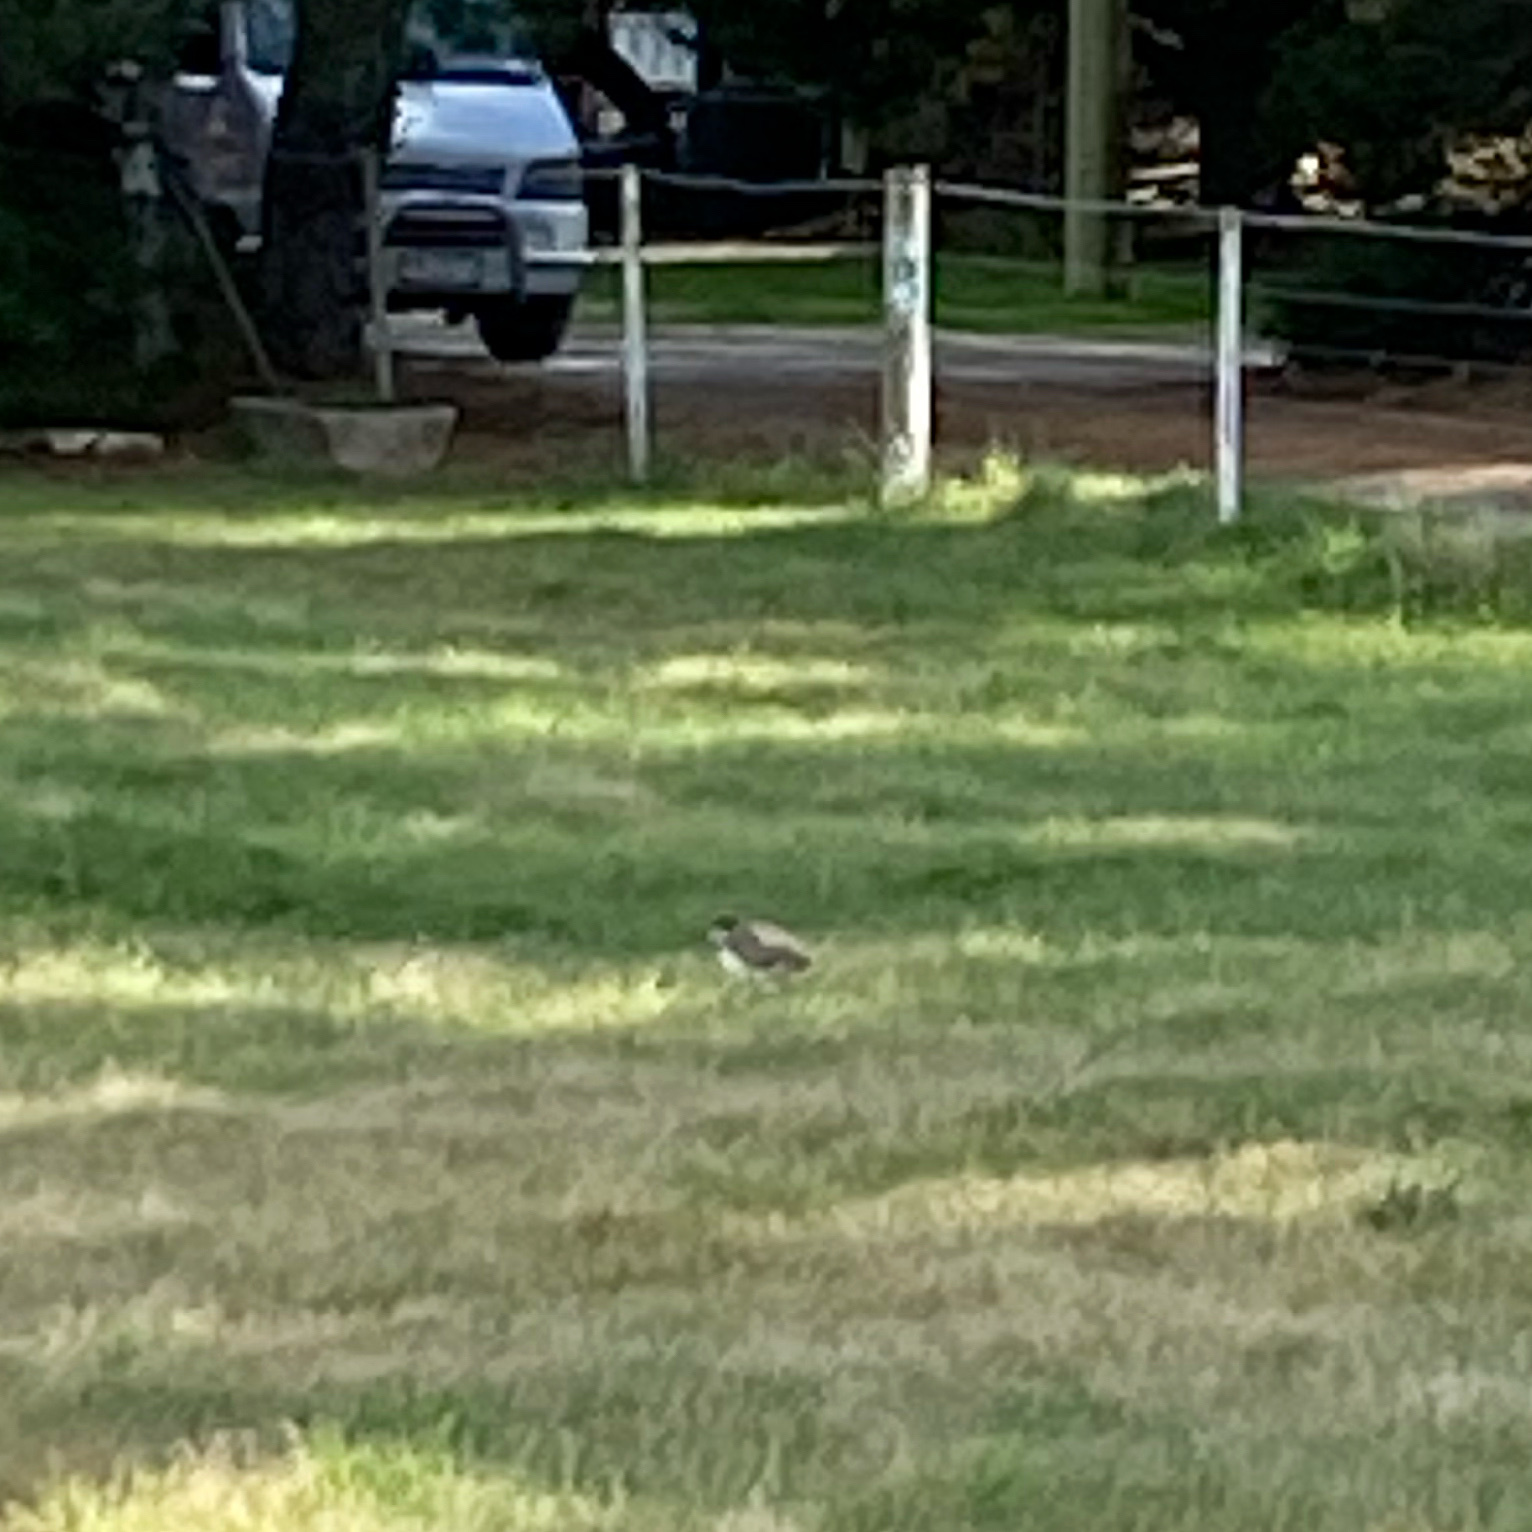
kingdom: Animalia
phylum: Chordata
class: Aves
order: Charadriiformes
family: Charadriidae
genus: Vanellus
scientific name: Vanellus miles
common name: Masked lapwing
